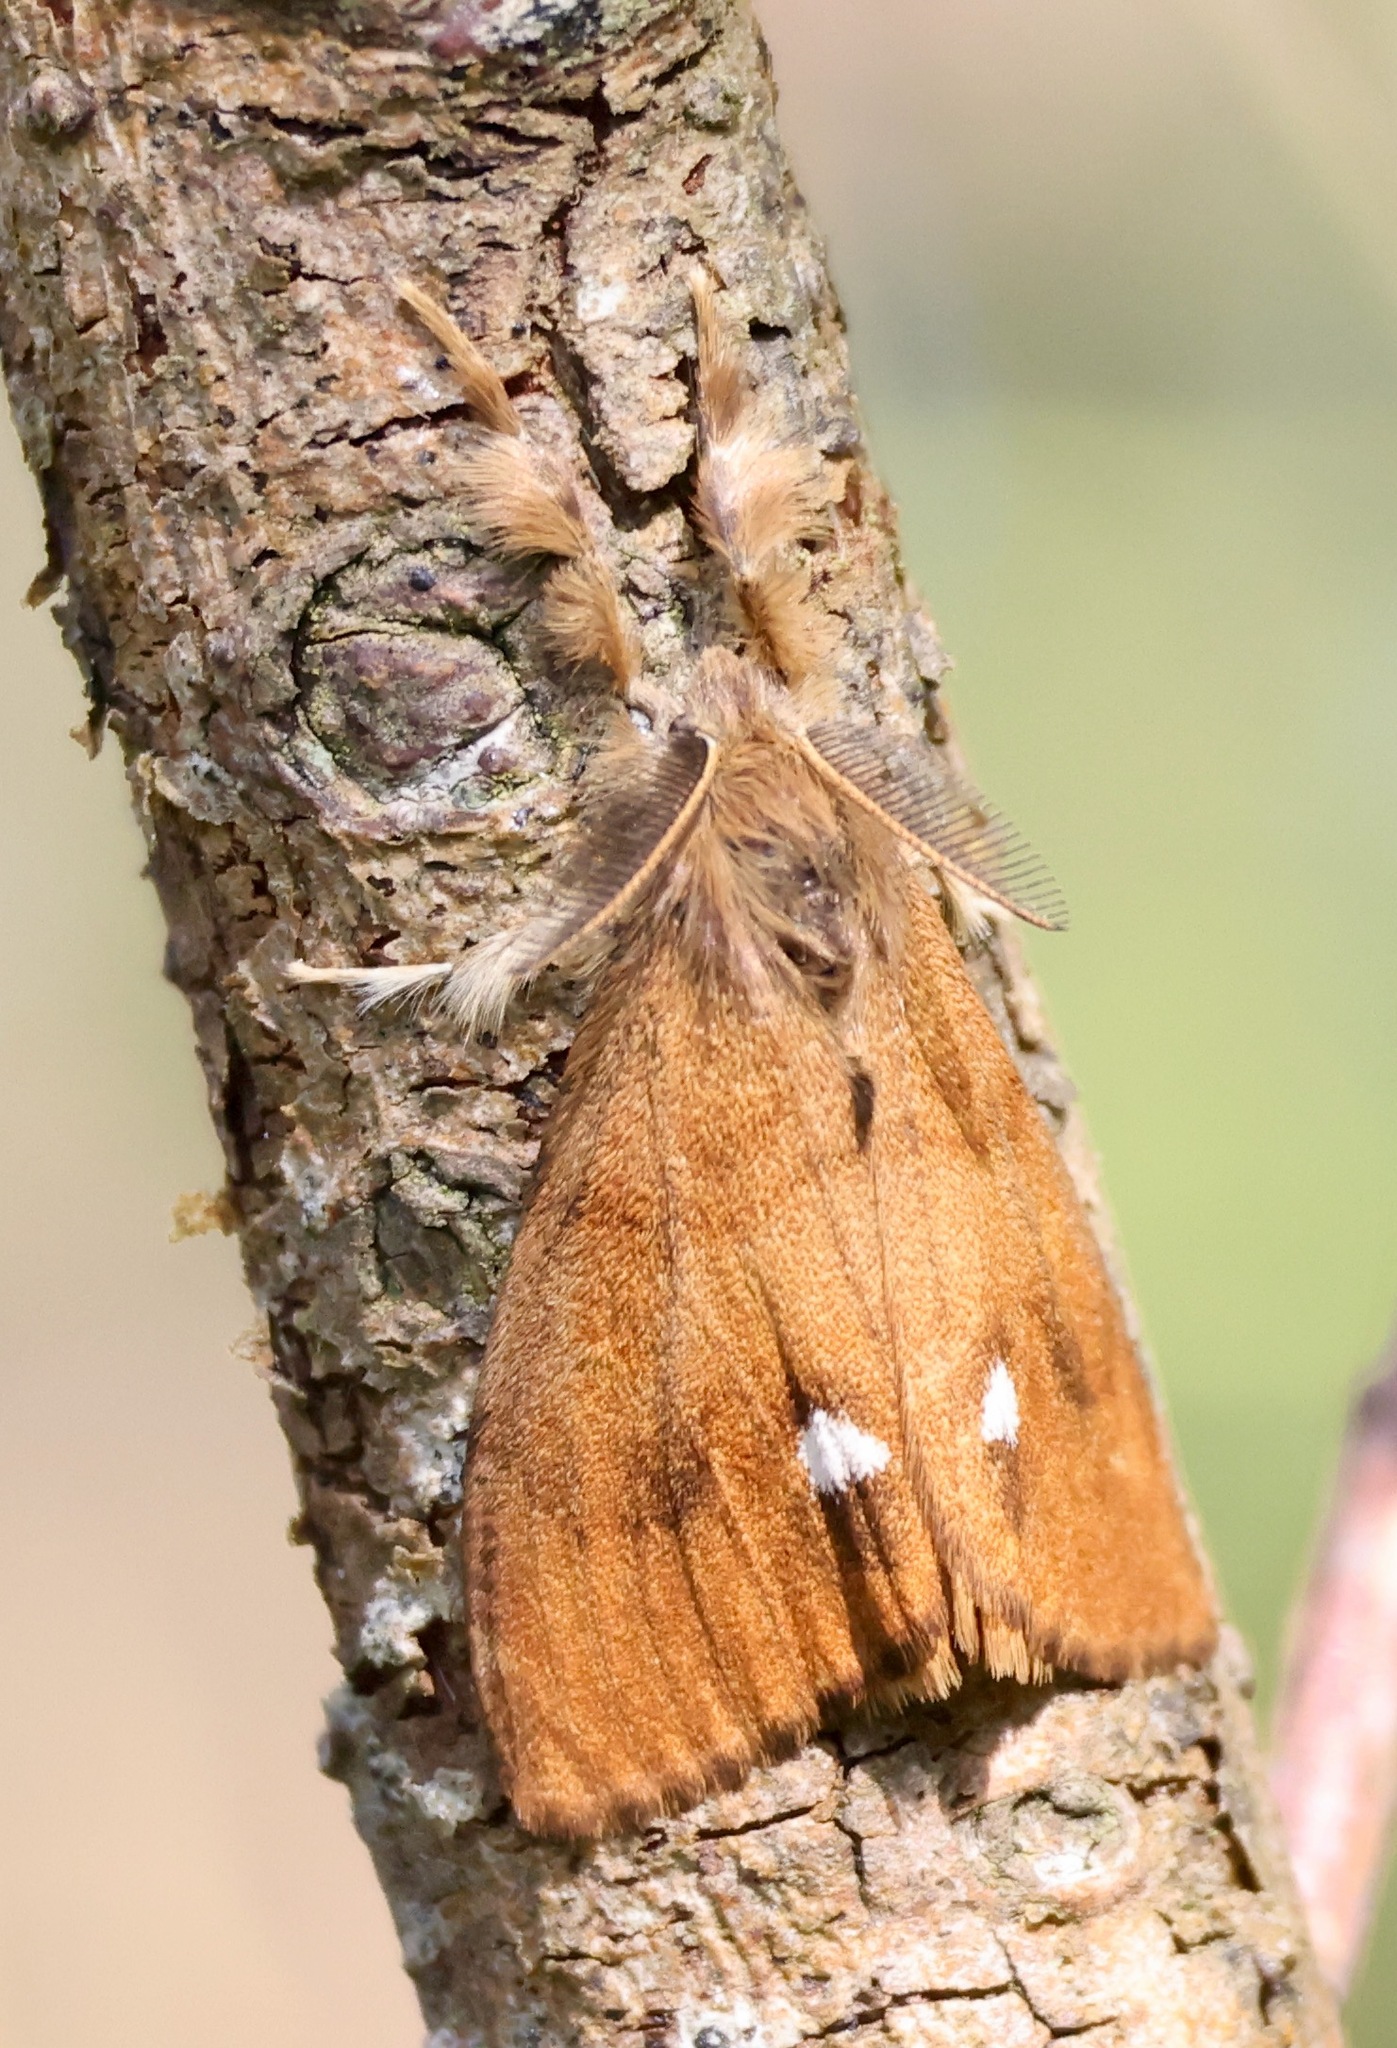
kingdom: Animalia
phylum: Arthropoda
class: Insecta
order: Lepidoptera
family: Erebidae
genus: Orgyia
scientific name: Orgyia antiqua
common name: Vapourer
